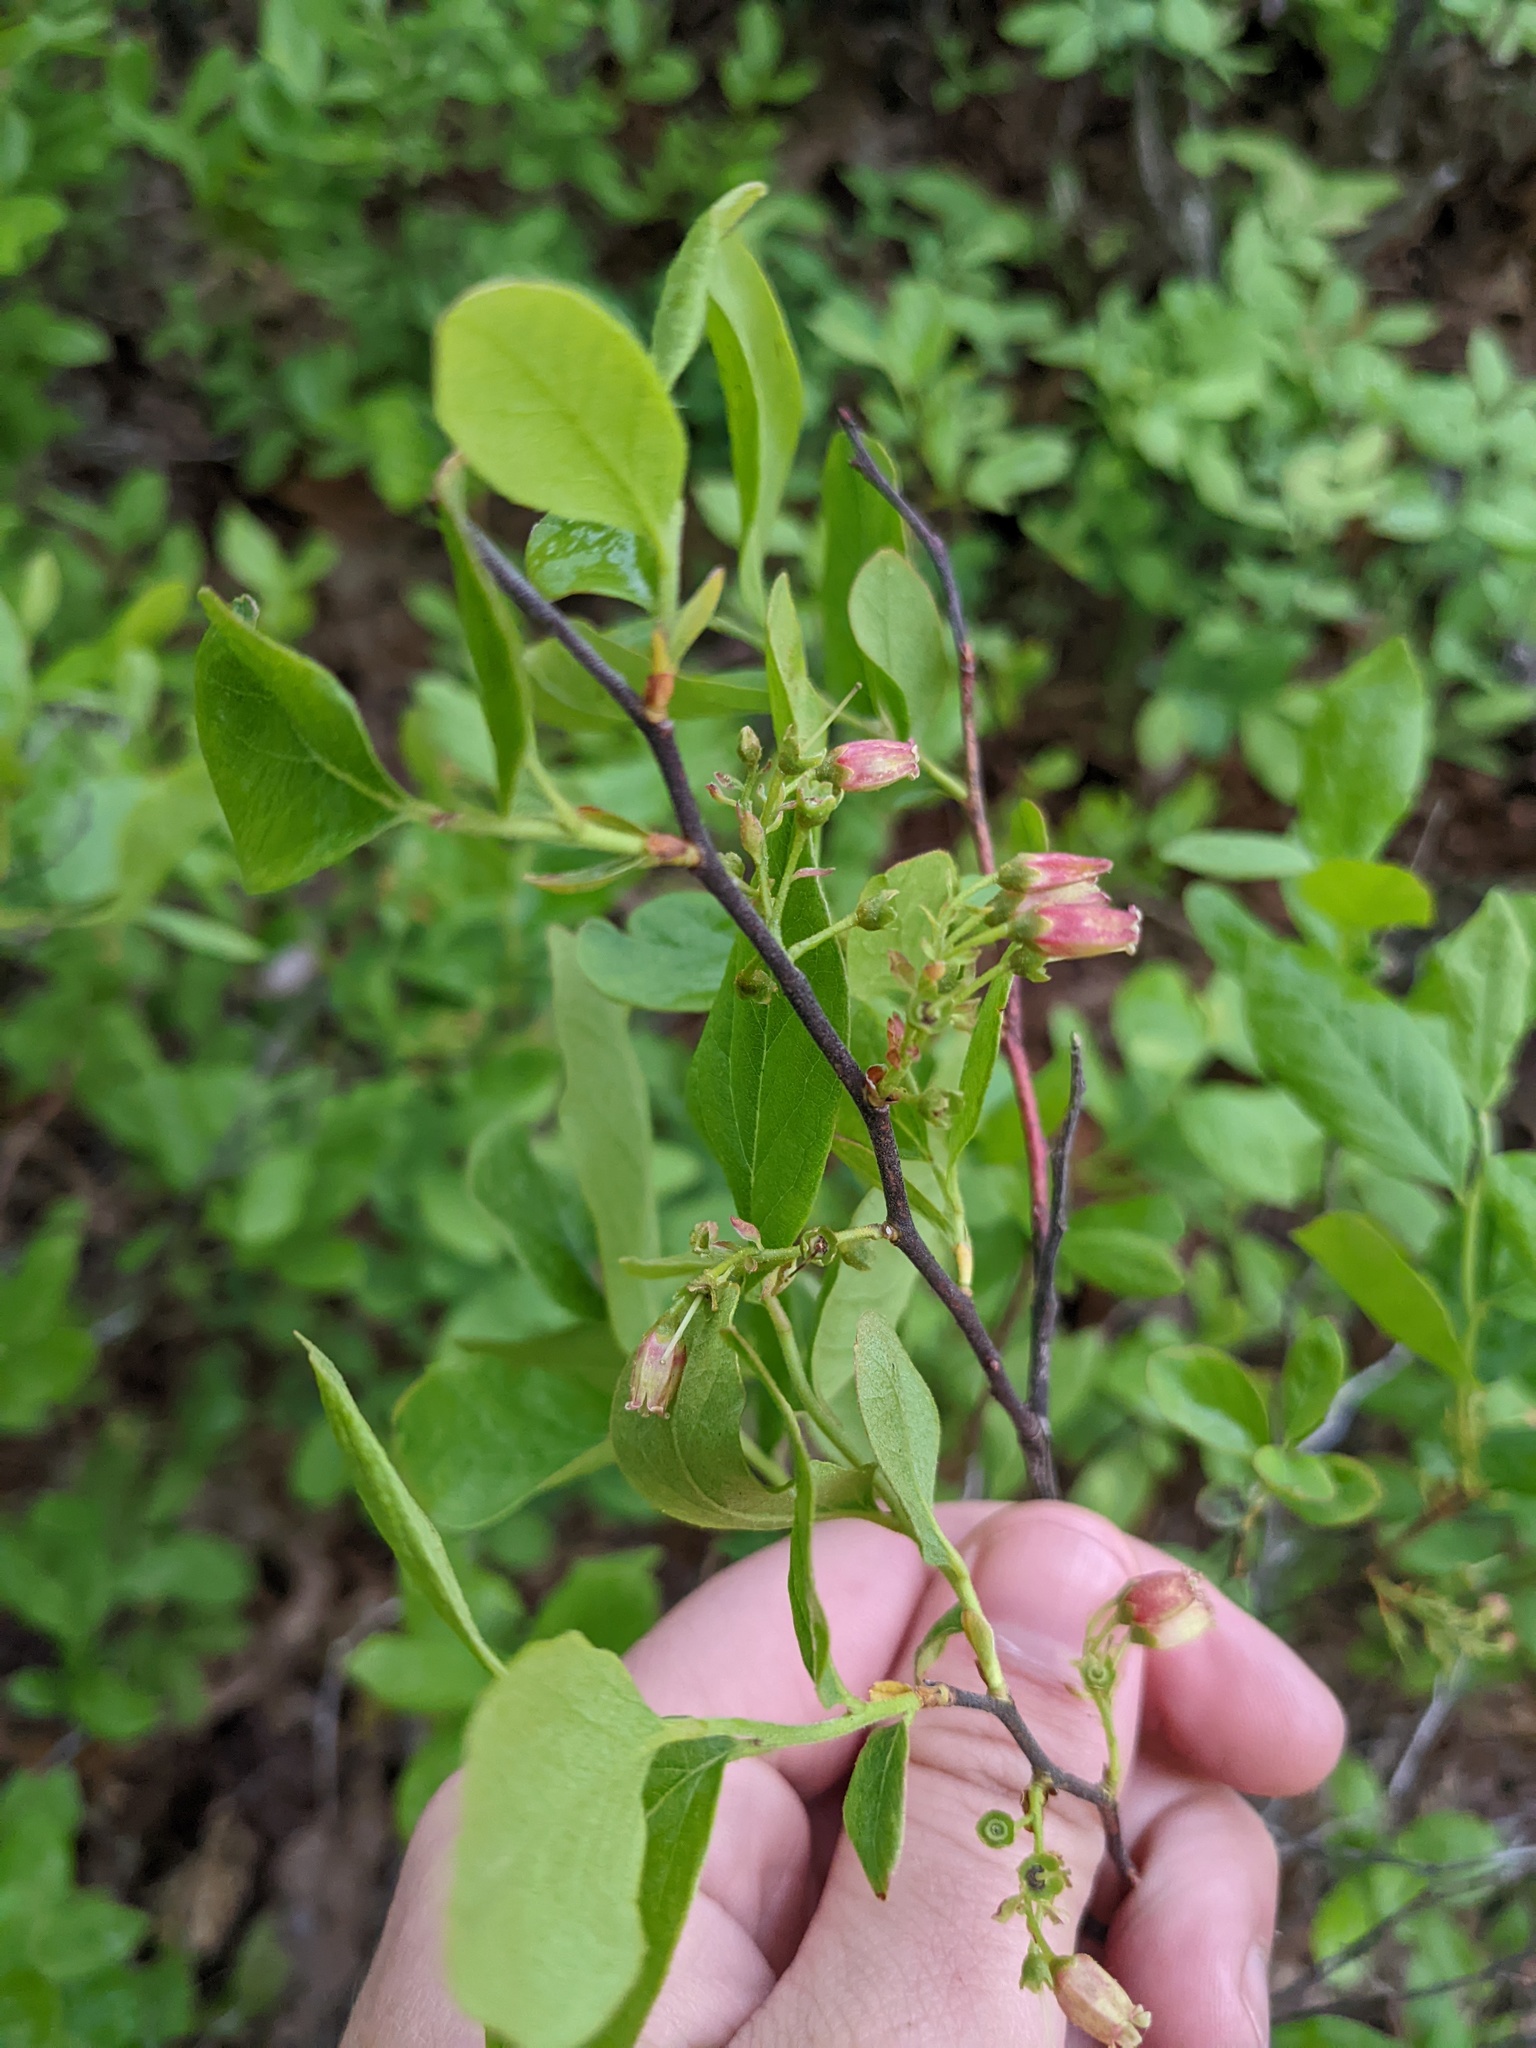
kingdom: Plantae
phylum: Tracheophyta
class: Magnoliopsida
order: Ericales
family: Ericaceae
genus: Gaylussacia
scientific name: Gaylussacia baccata
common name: Black huckleberry
